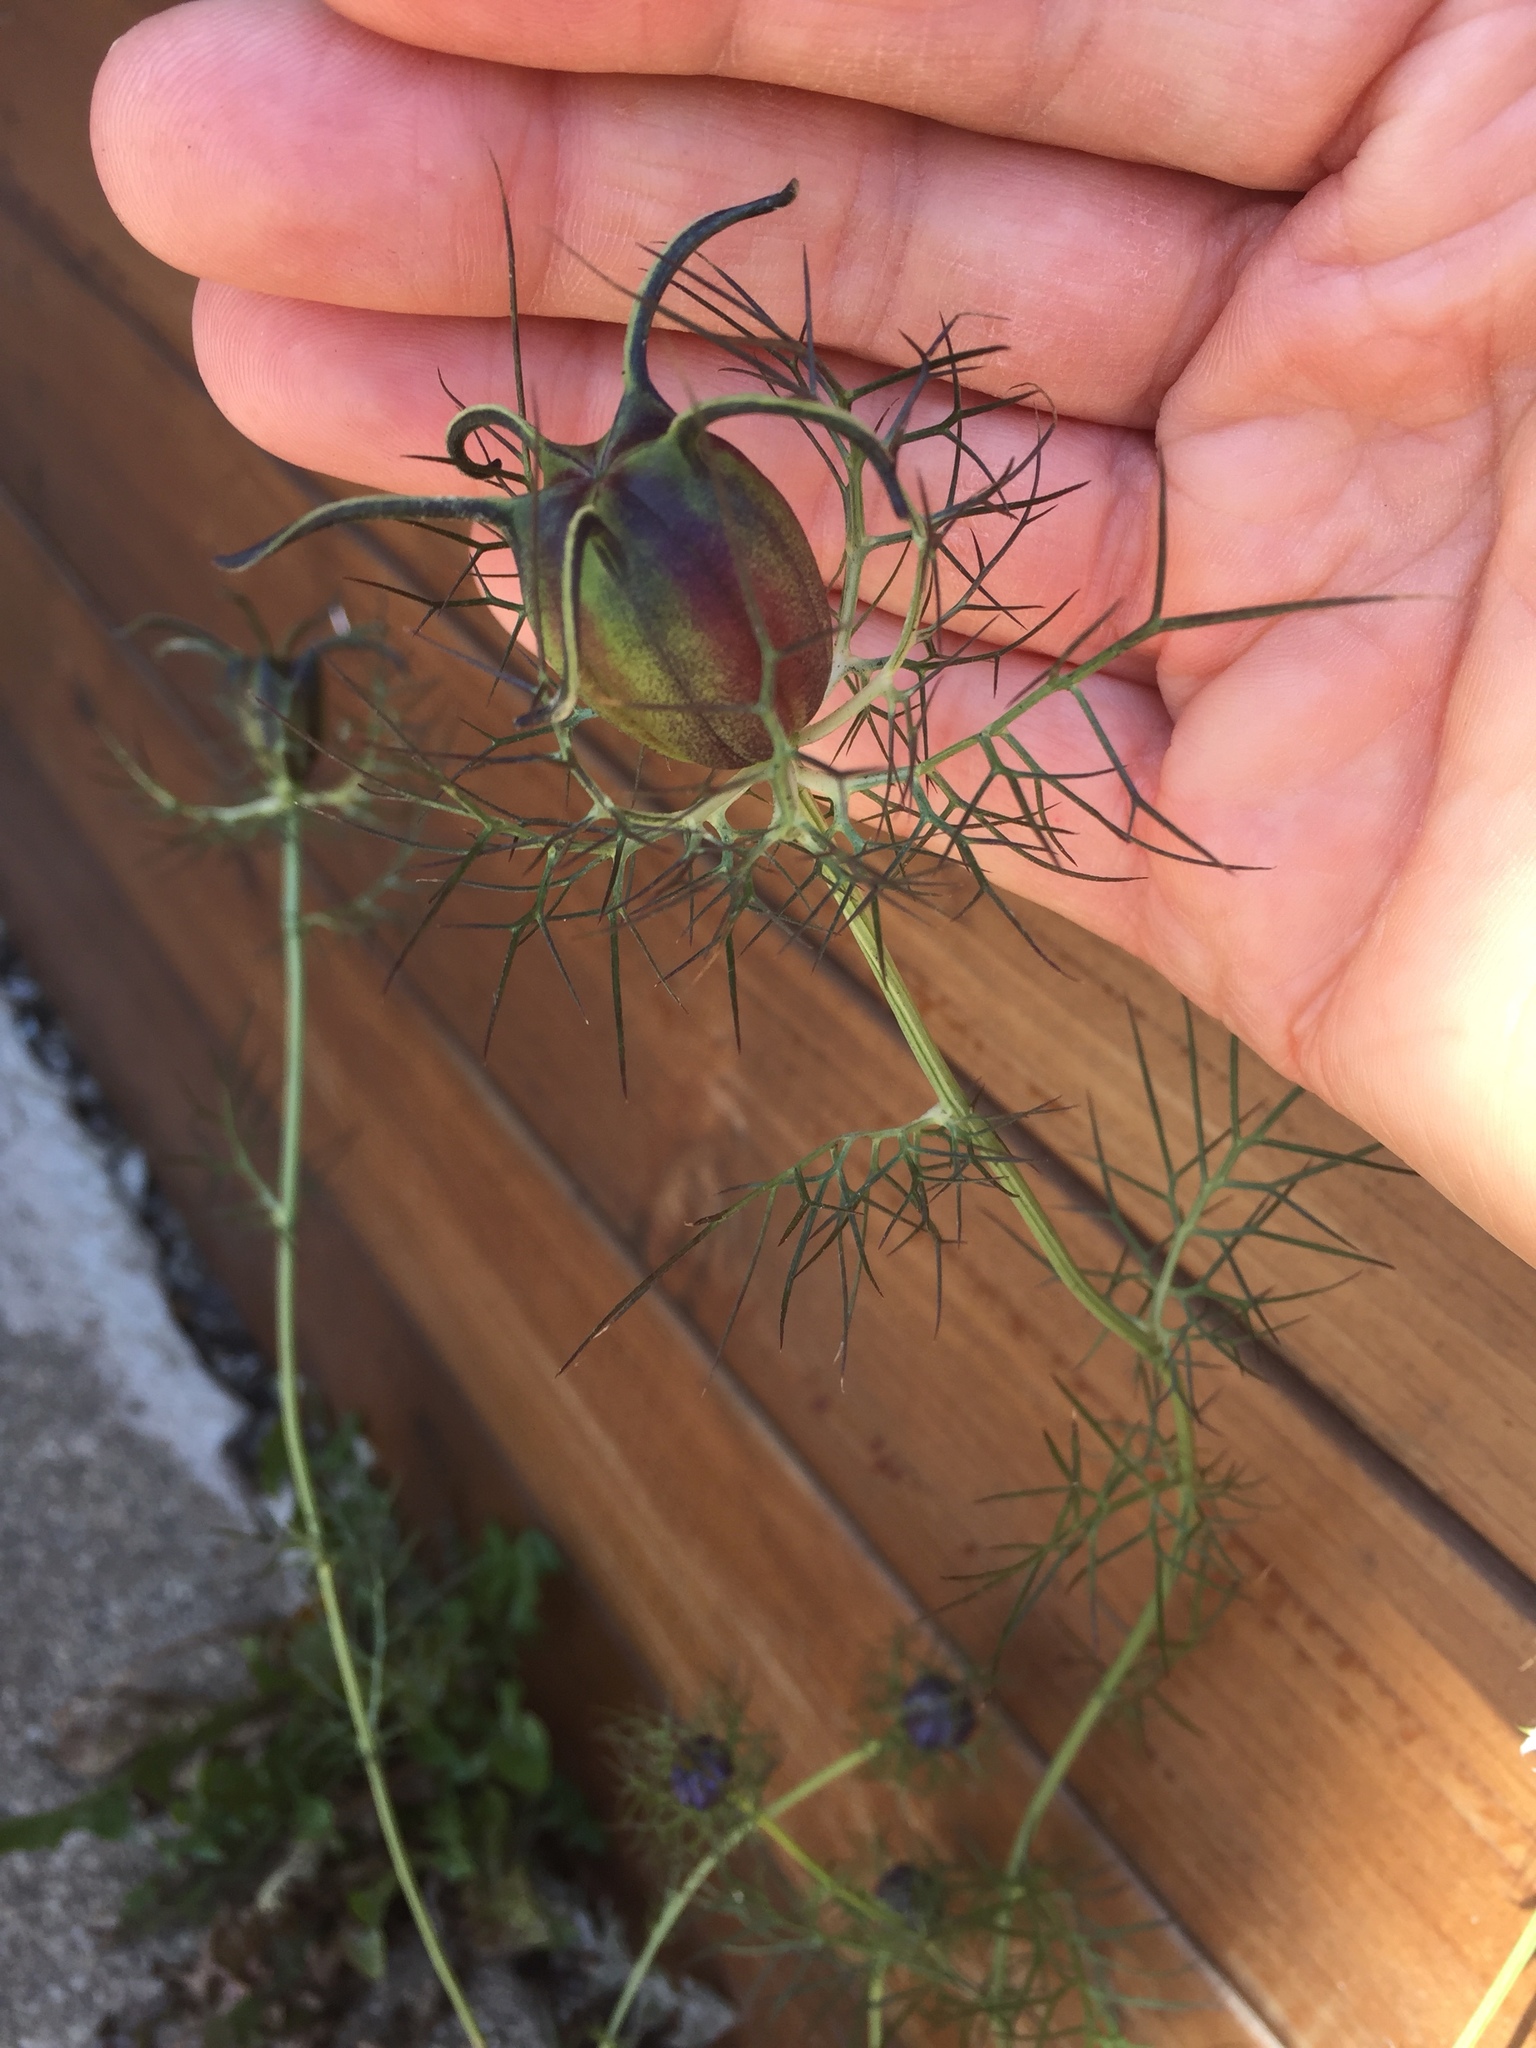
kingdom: Plantae
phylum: Tracheophyta
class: Magnoliopsida
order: Ranunculales
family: Ranunculaceae
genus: Nigella
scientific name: Nigella damascena
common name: Love-in-a-mist
